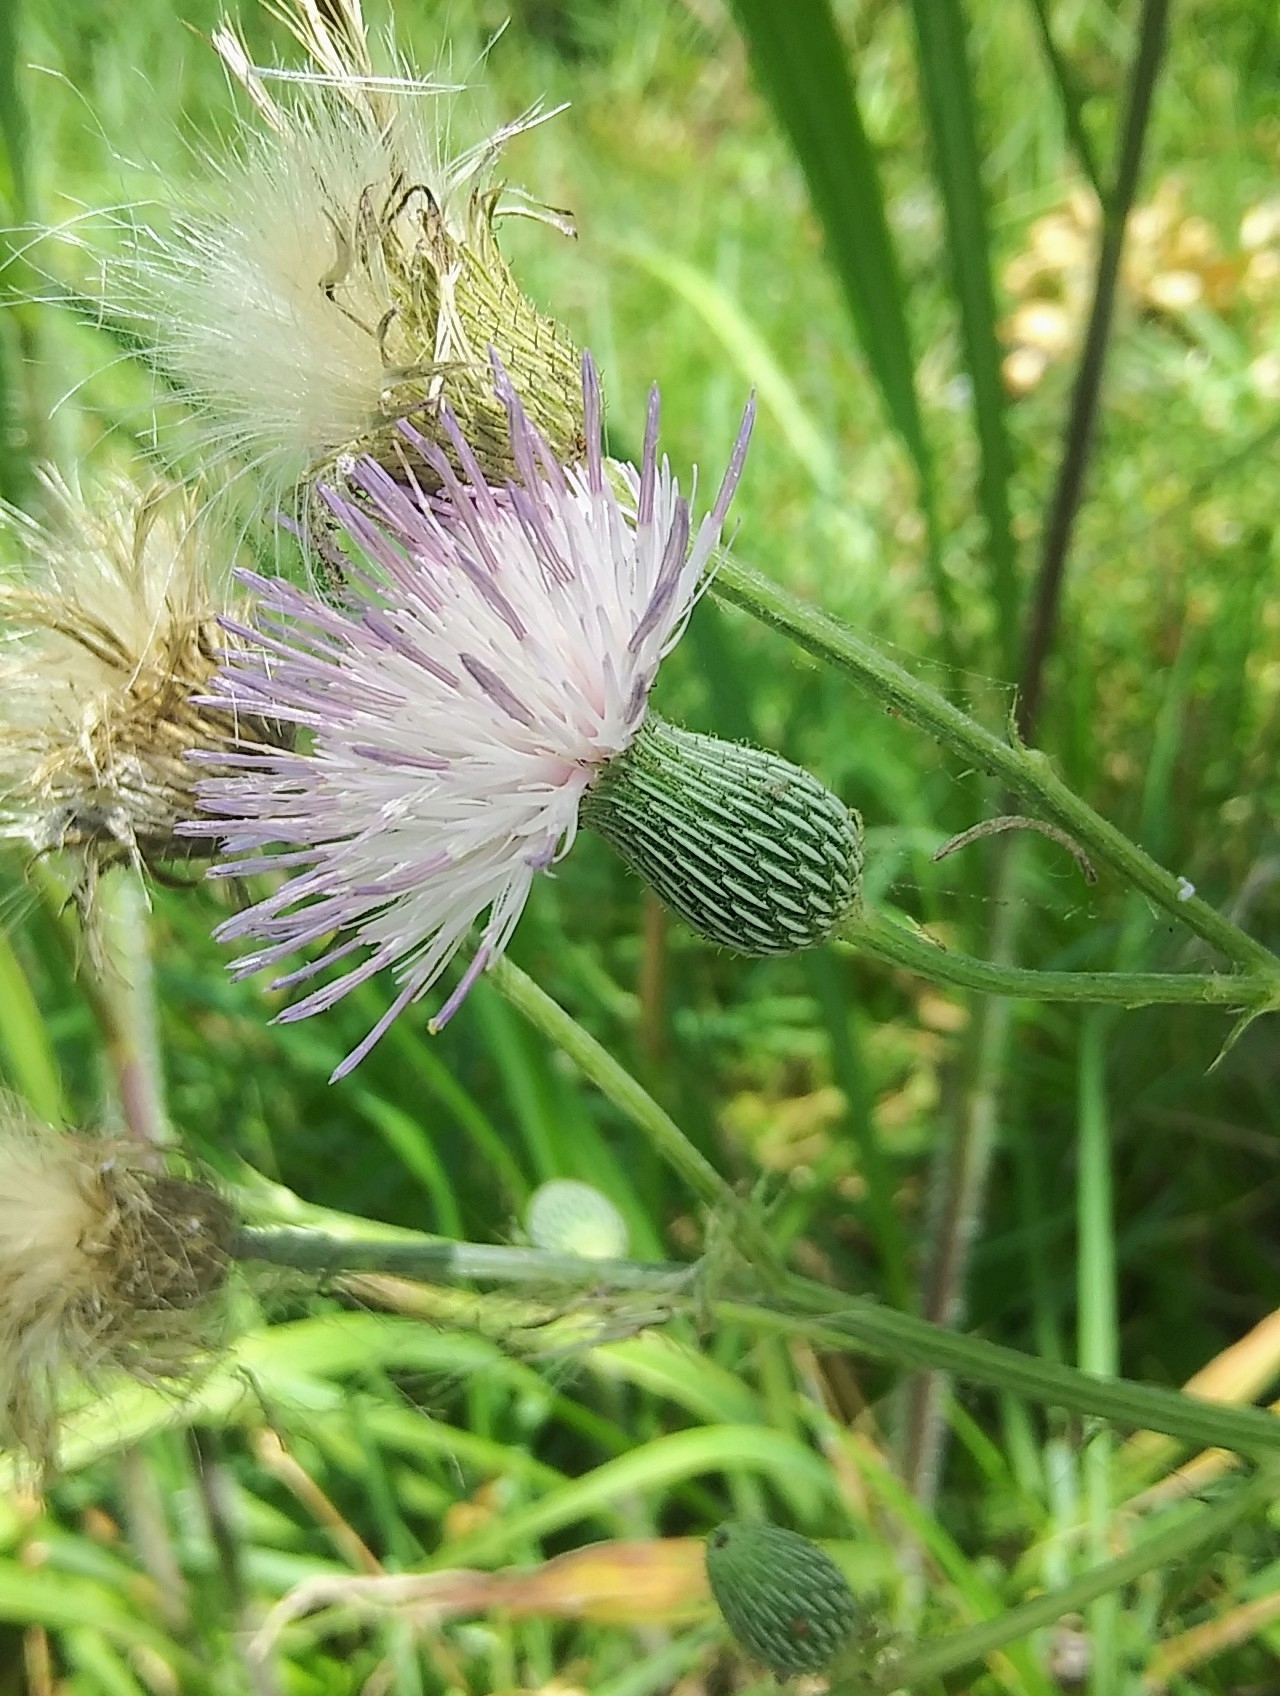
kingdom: Plantae
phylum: Tracheophyta
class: Magnoliopsida
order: Asterales
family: Asteraceae
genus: Cirsium
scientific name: Cirsium nuttalii
